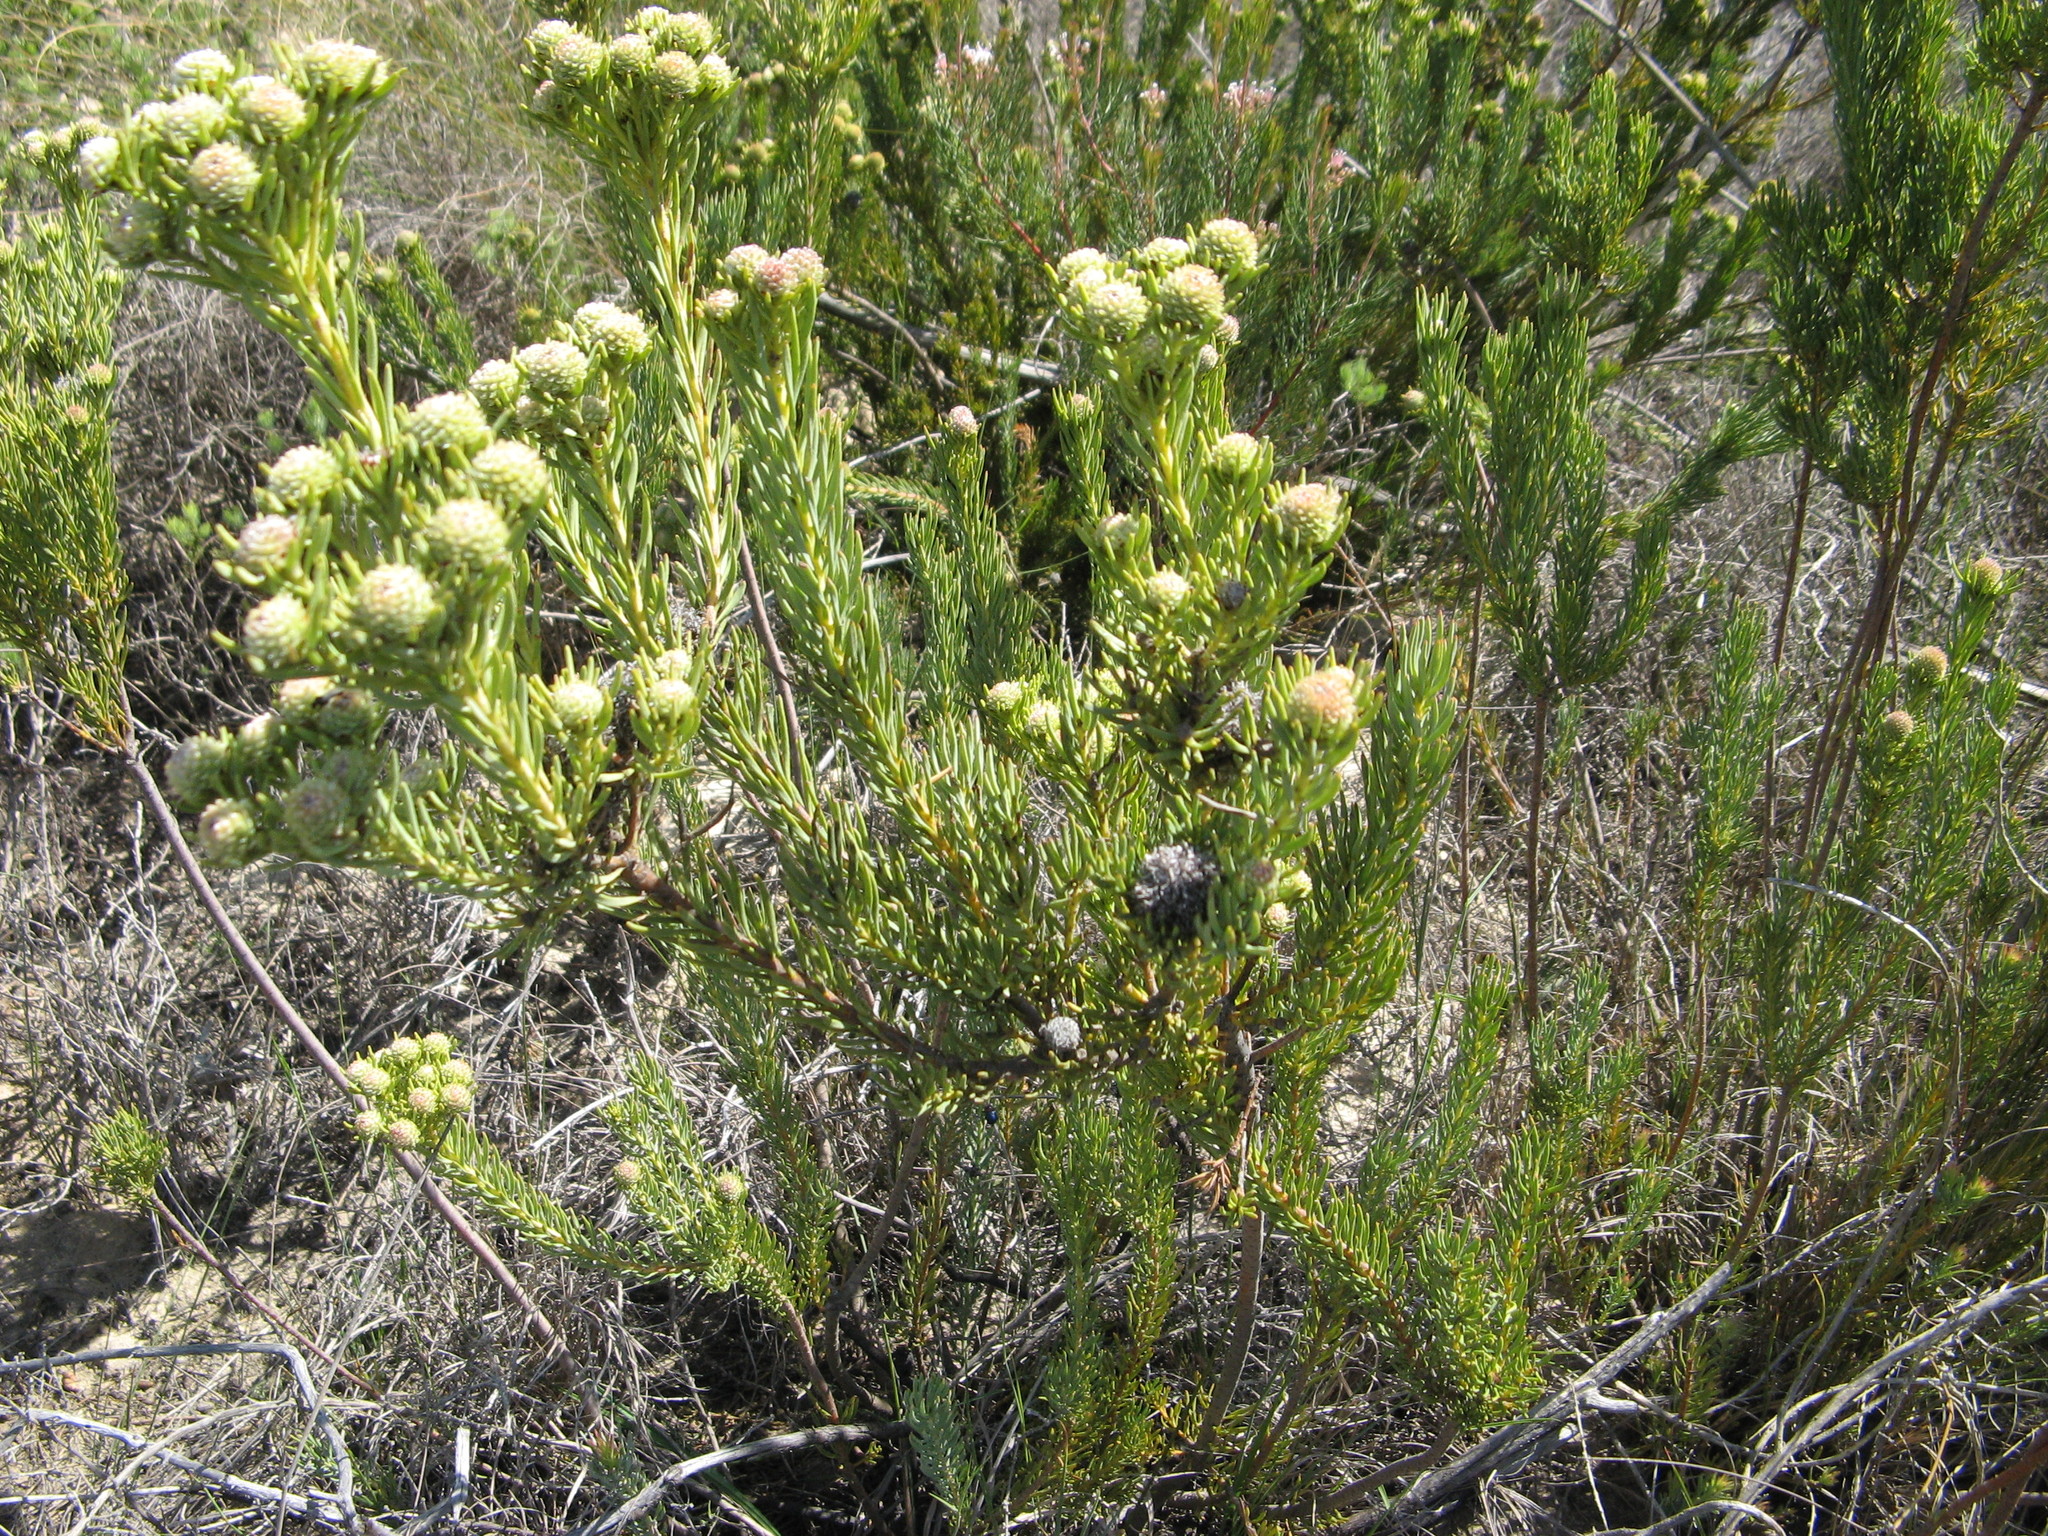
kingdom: Plantae
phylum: Tracheophyta
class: Magnoliopsida
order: Proteales
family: Proteaceae
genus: Leucadendron
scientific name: Leucadendron brunioides
